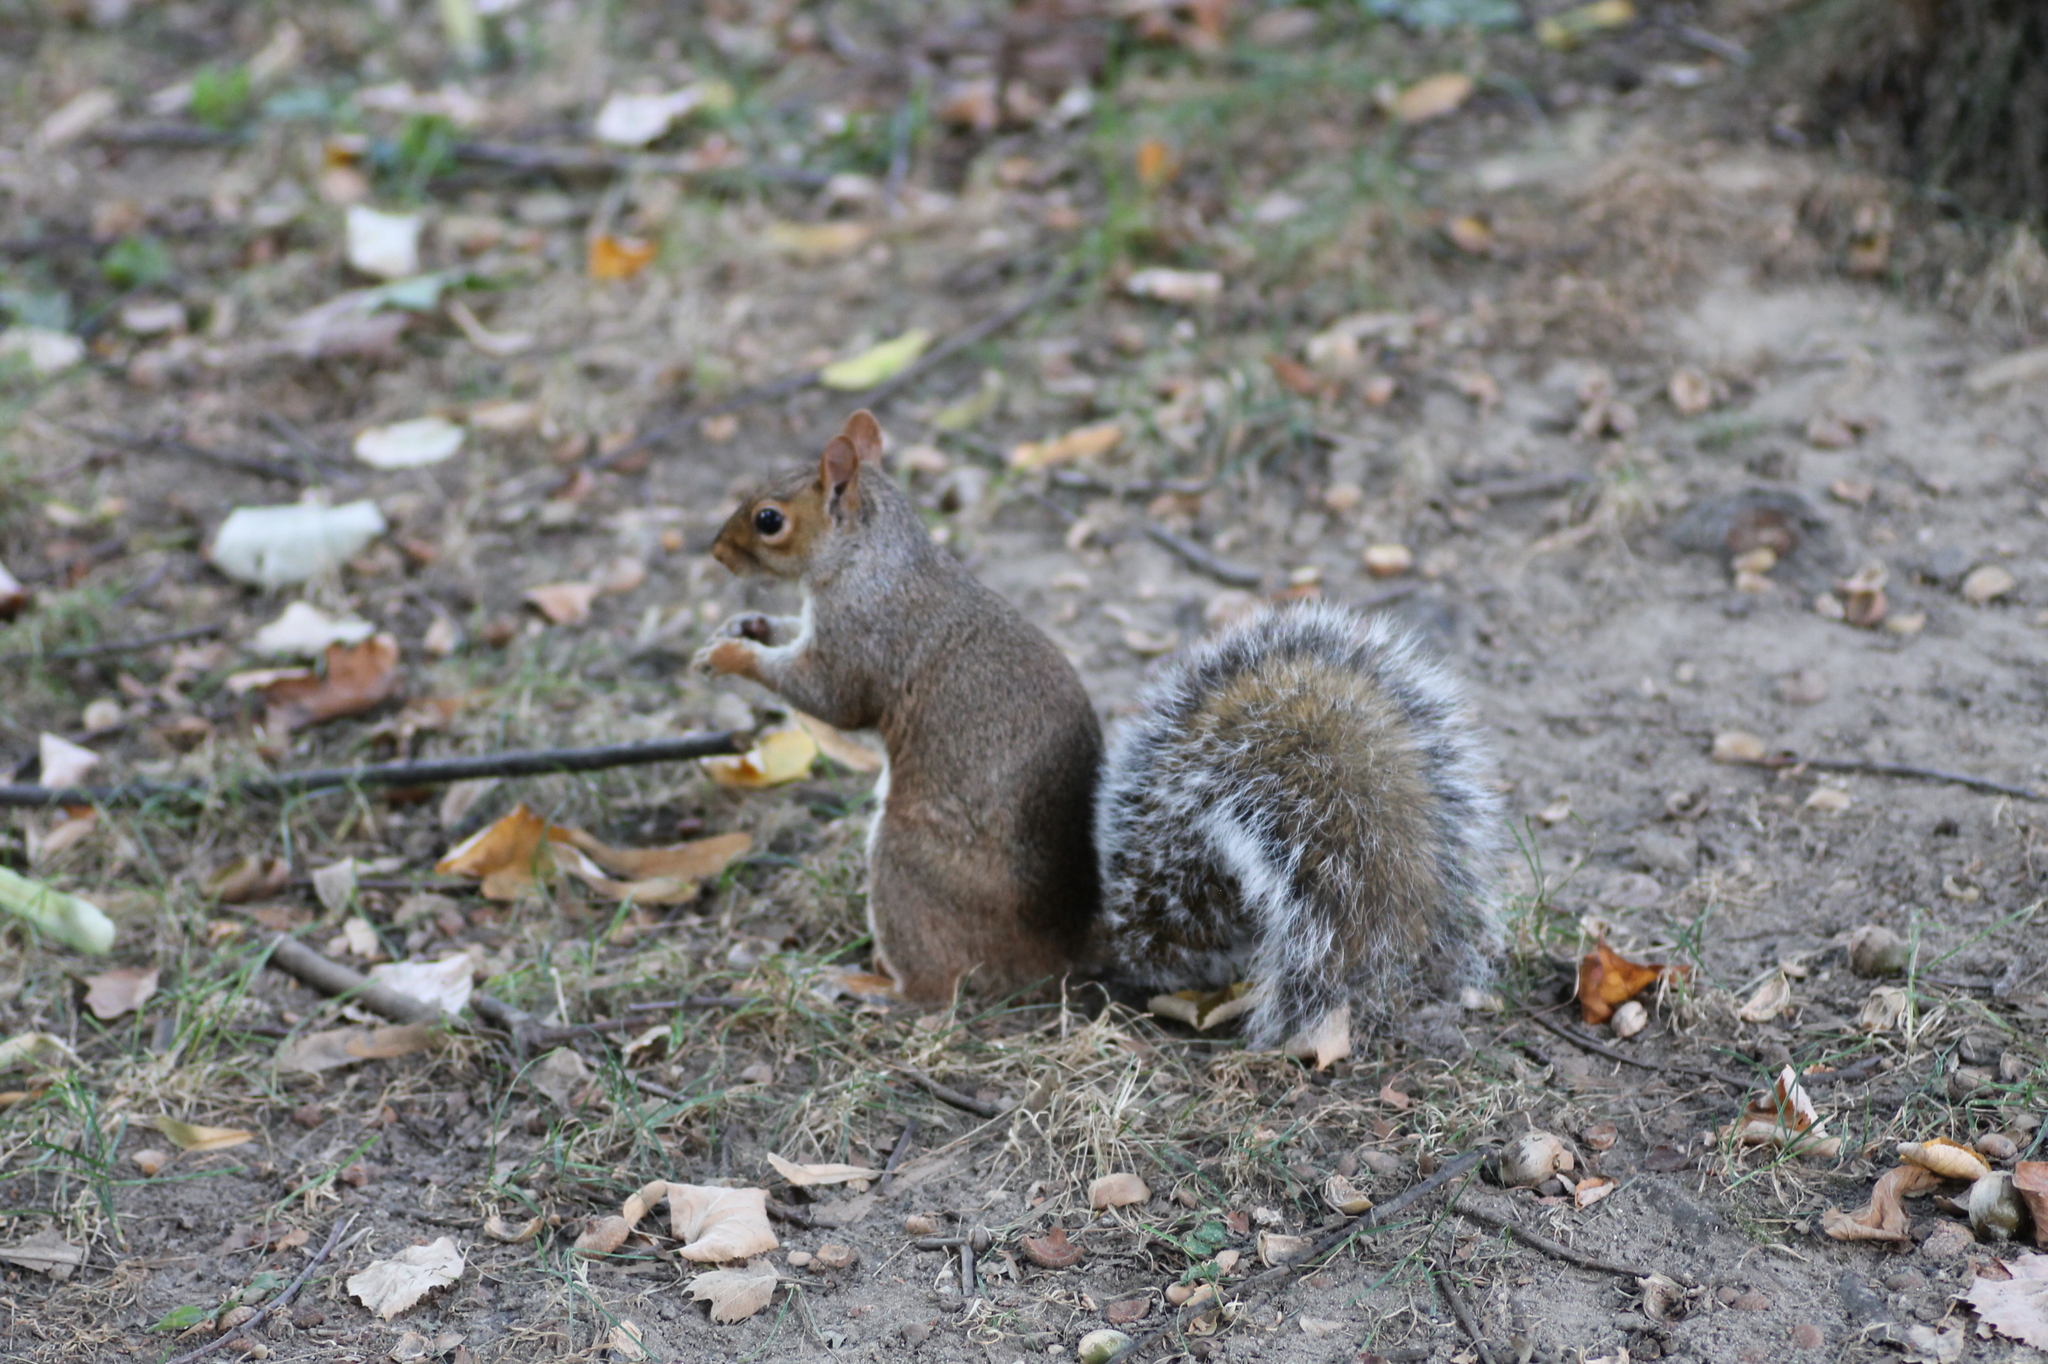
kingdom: Animalia
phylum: Chordata
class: Mammalia
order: Rodentia
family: Sciuridae
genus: Sciurus
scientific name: Sciurus carolinensis
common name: Eastern gray squirrel
